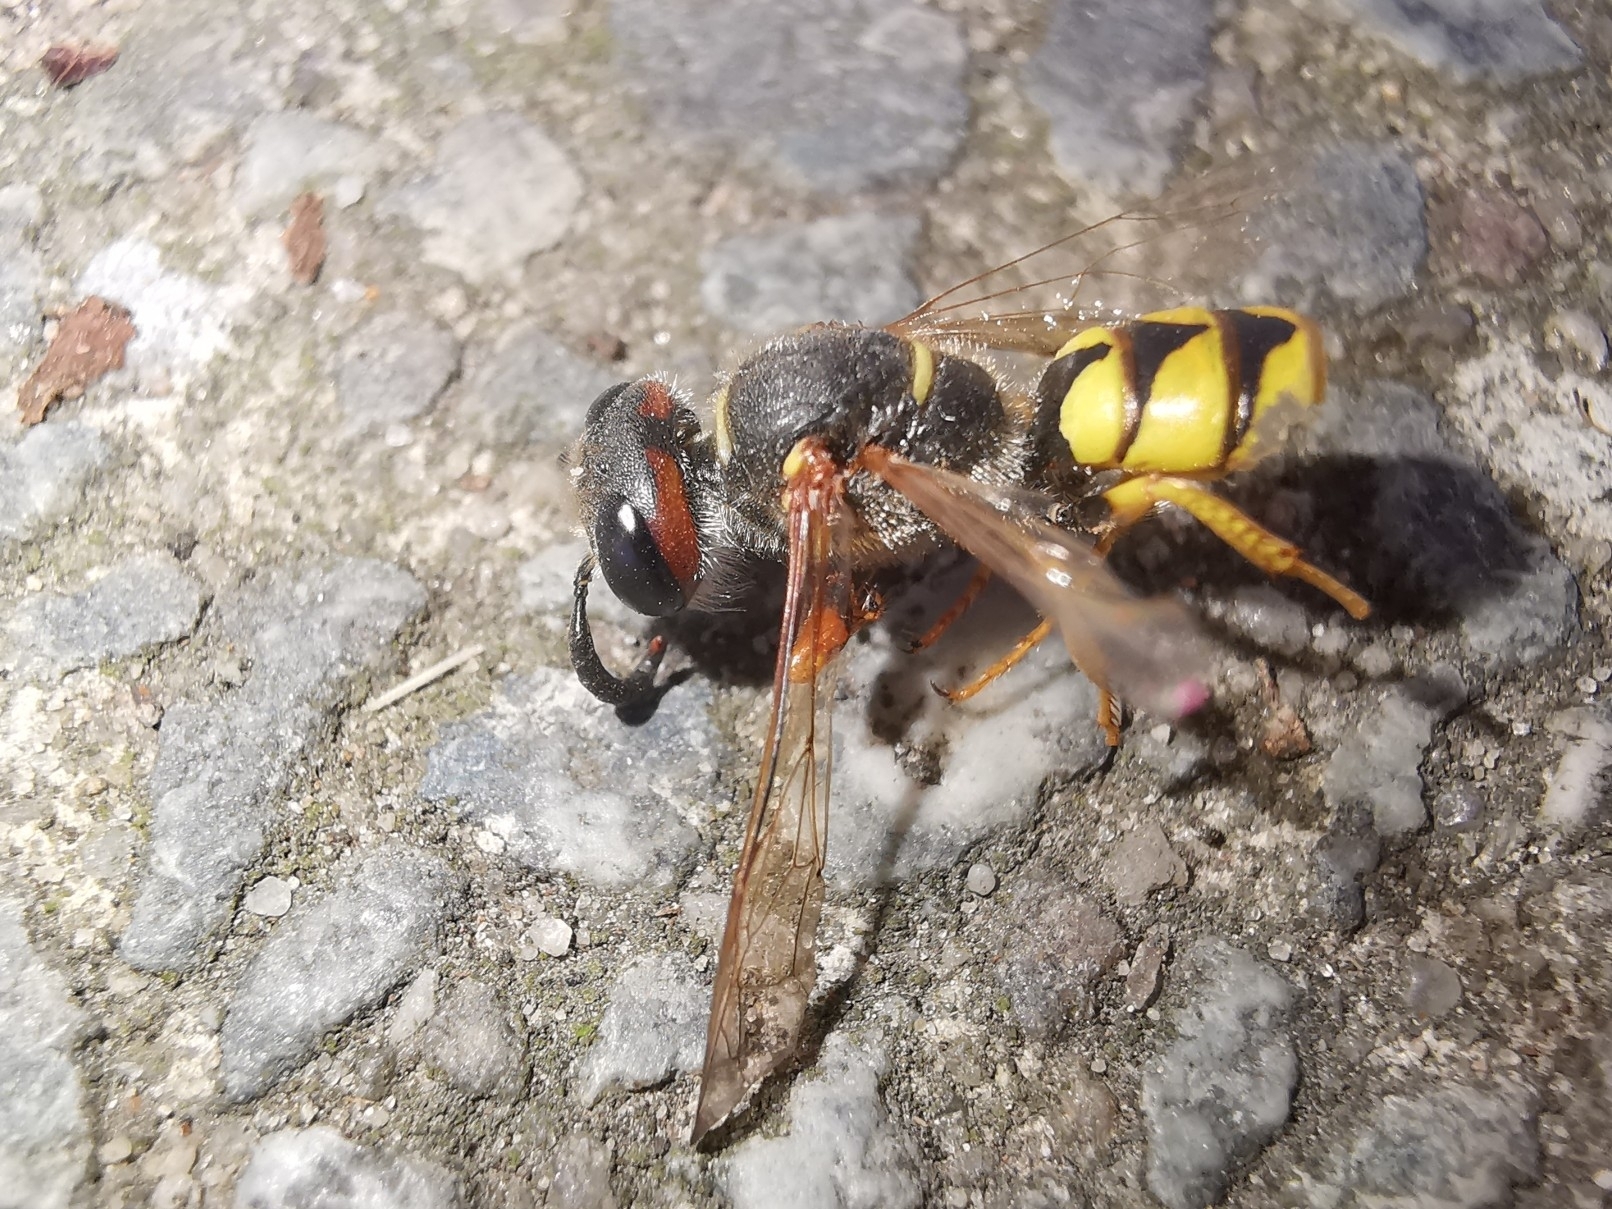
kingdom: Animalia
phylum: Arthropoda
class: Insecta
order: Hymenoptera
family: Crabronidae
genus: Philanthus
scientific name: Philanthus triangulum
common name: Bee wolf
